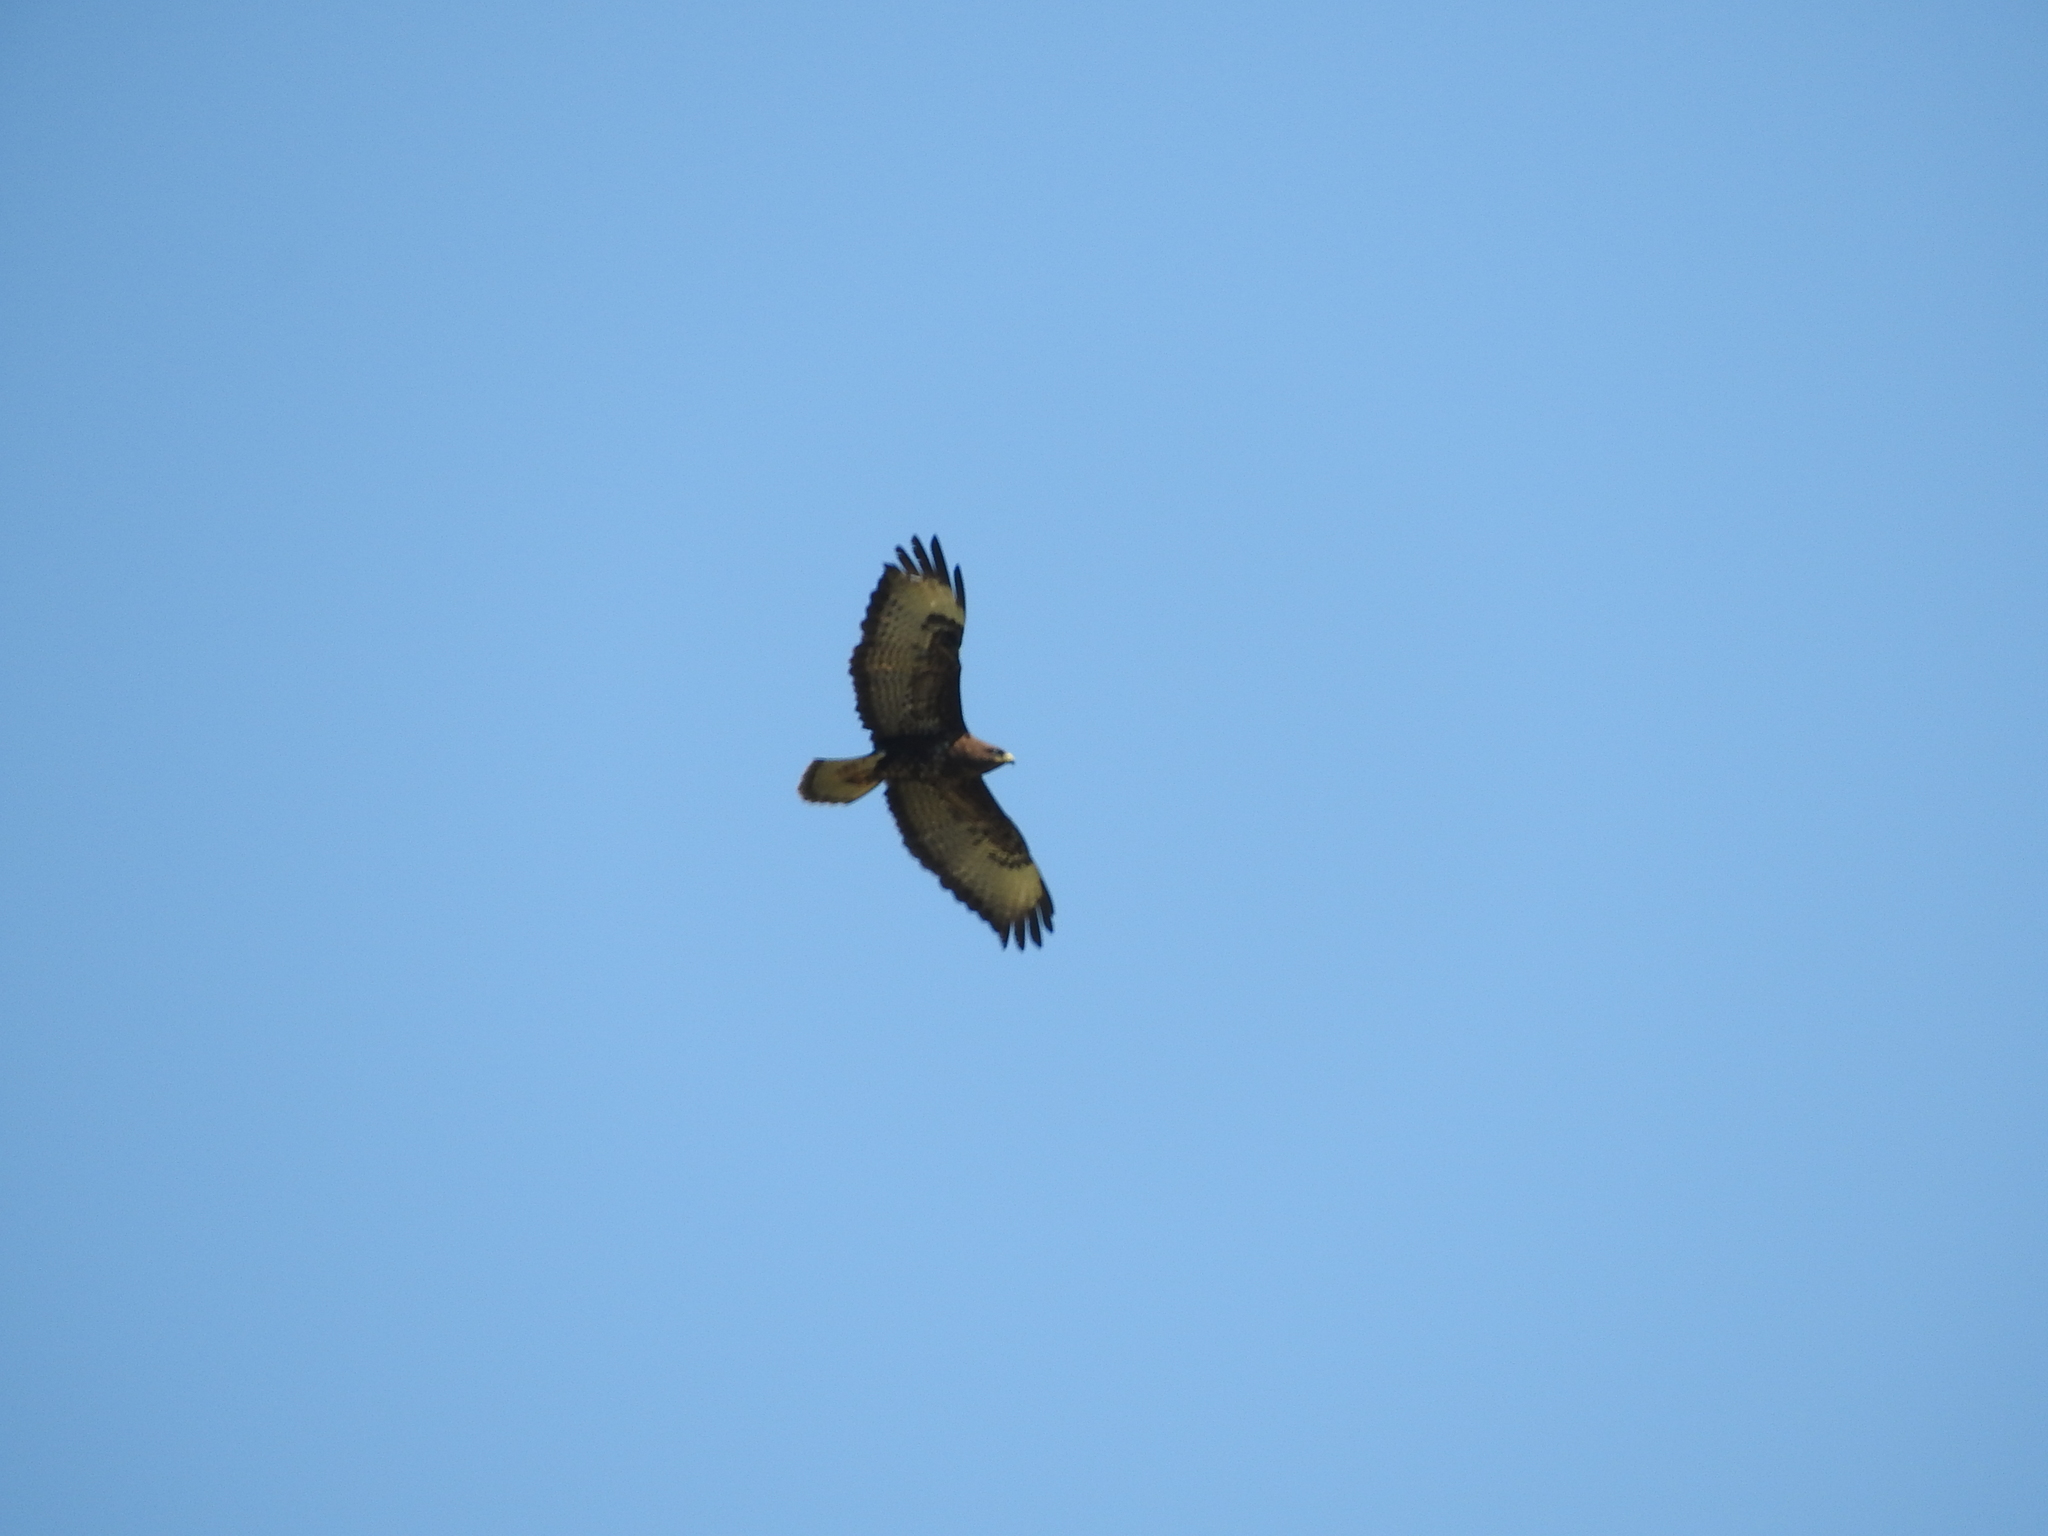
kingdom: Animalia
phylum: Chordata
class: Aves
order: Accipitriformes
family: Accipitridae
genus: Buteo
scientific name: Buteo buteo
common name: Common buzzard
